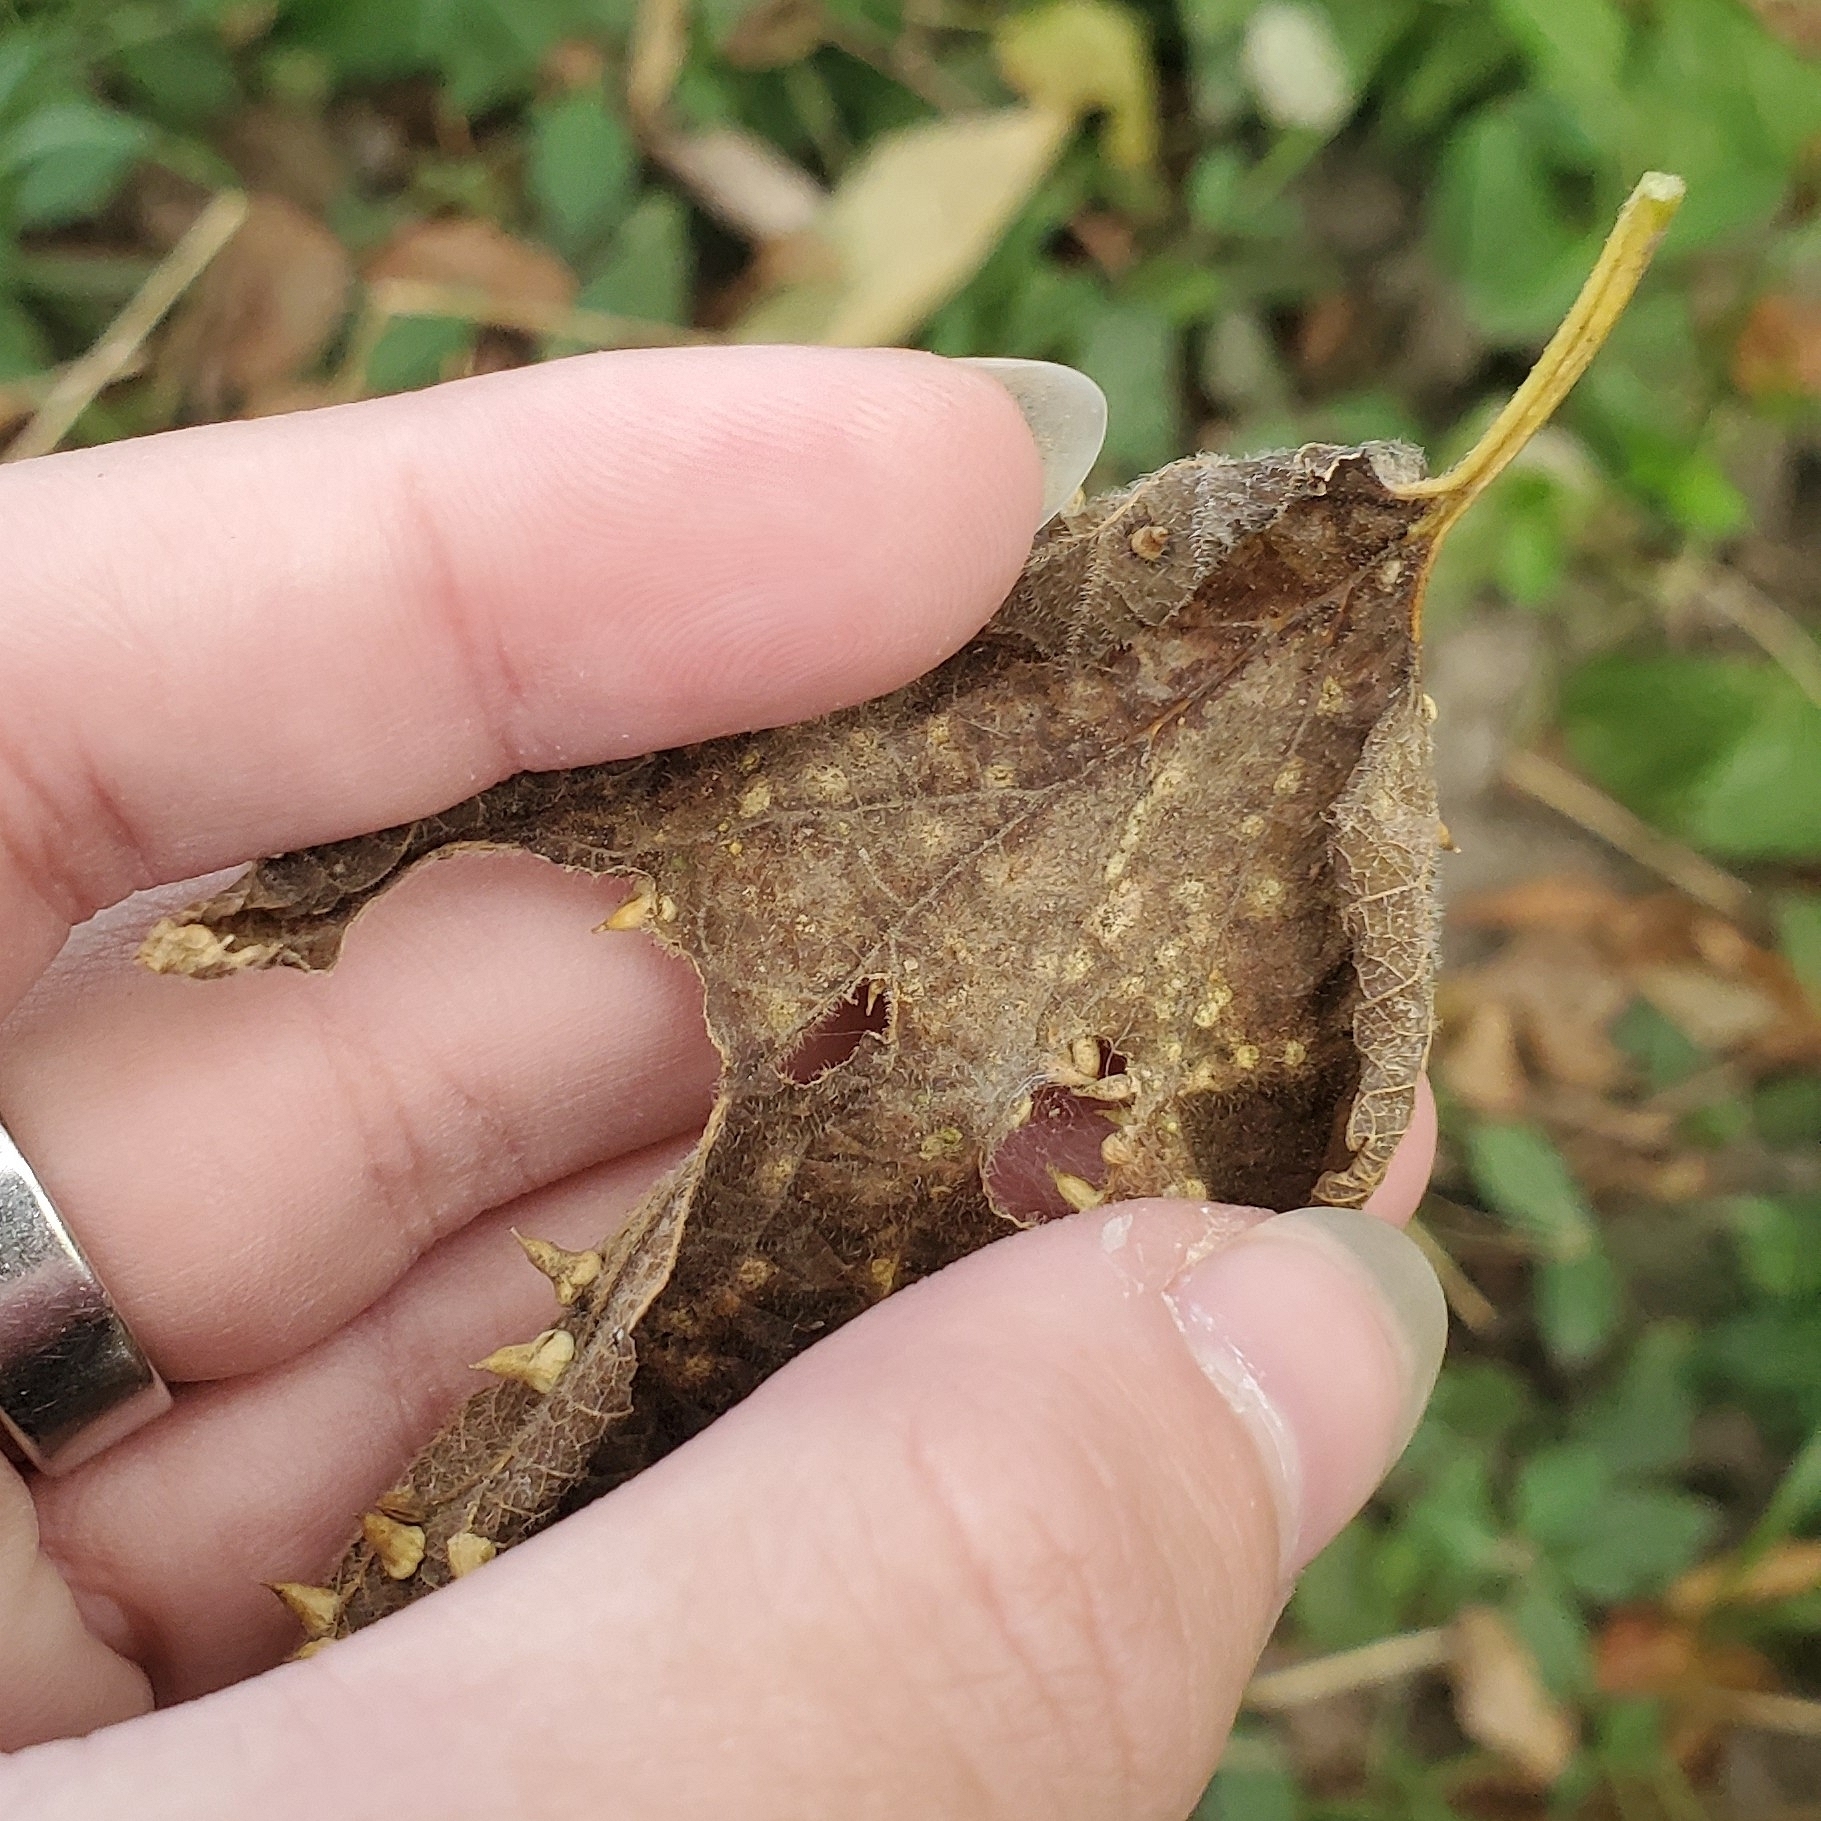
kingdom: Animalia
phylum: Arthropoda
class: Insecta
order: Diptera
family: Cecidomyiidae
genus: Celticecis
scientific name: Celticecis spiniformis
